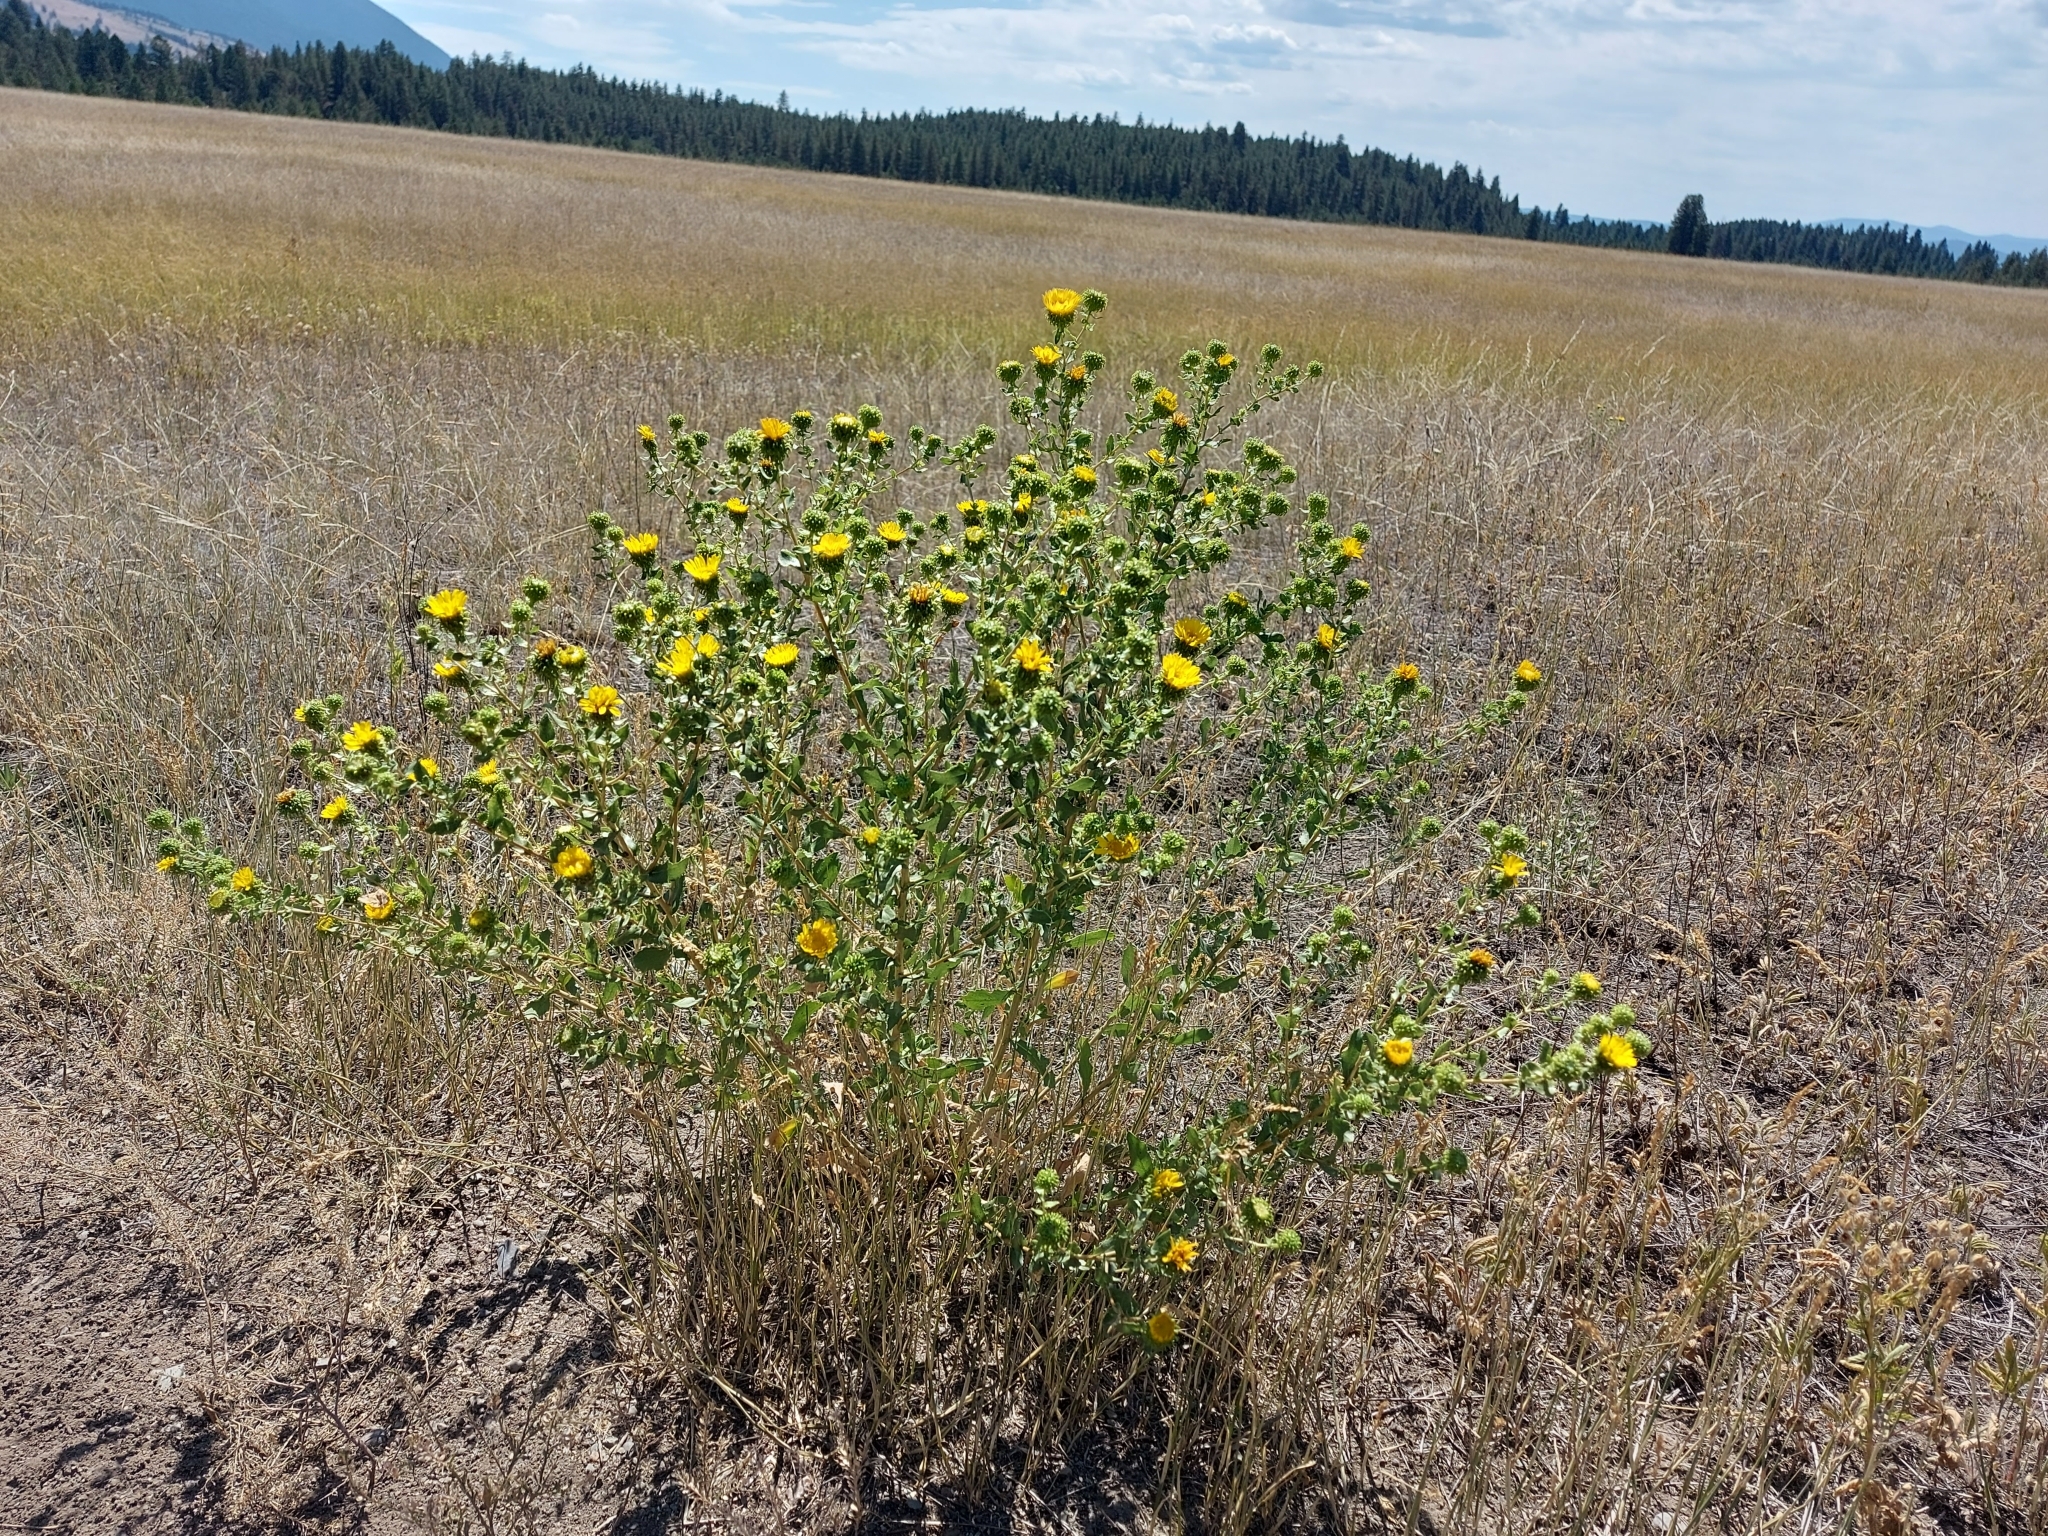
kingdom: Plantae
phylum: Tracheophyta
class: Magnoliopsida
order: Asterales
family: Asteraceae
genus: Grindelia
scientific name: Grindelia squarrosa
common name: Curly-cup gumweed
